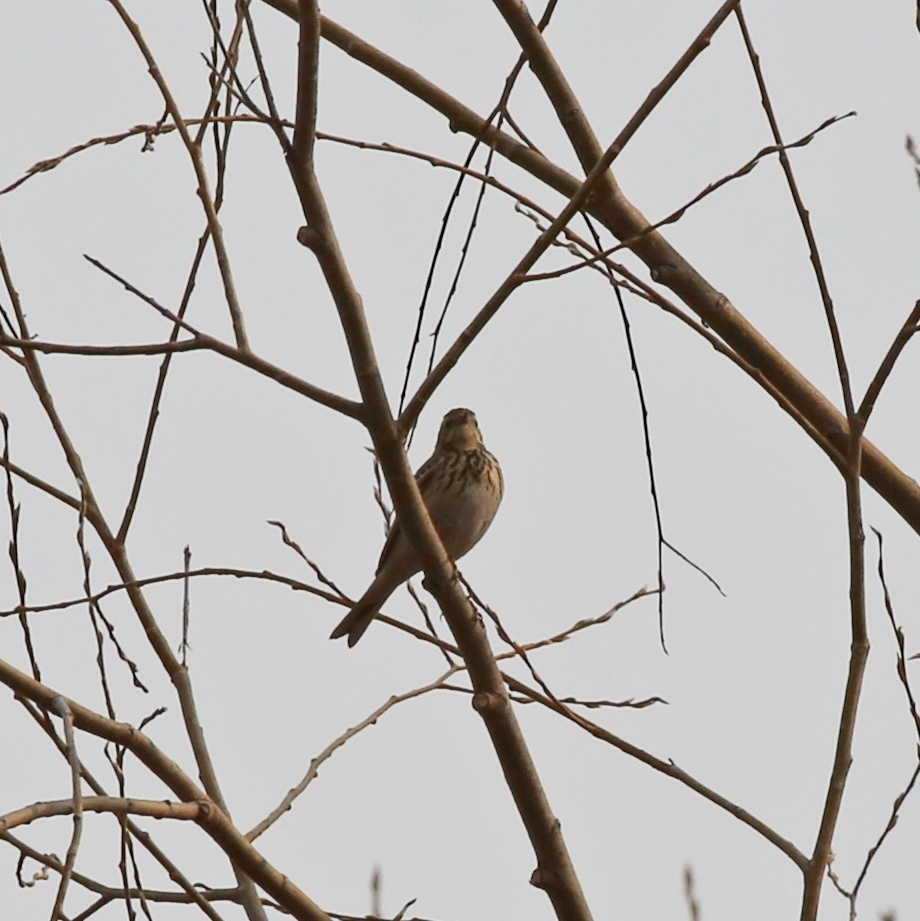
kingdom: Animalia
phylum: Chordata
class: Aves
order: Passeriformes
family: Motacillidae
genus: Anthus
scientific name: Anthus trivialis
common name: Tree pipit
